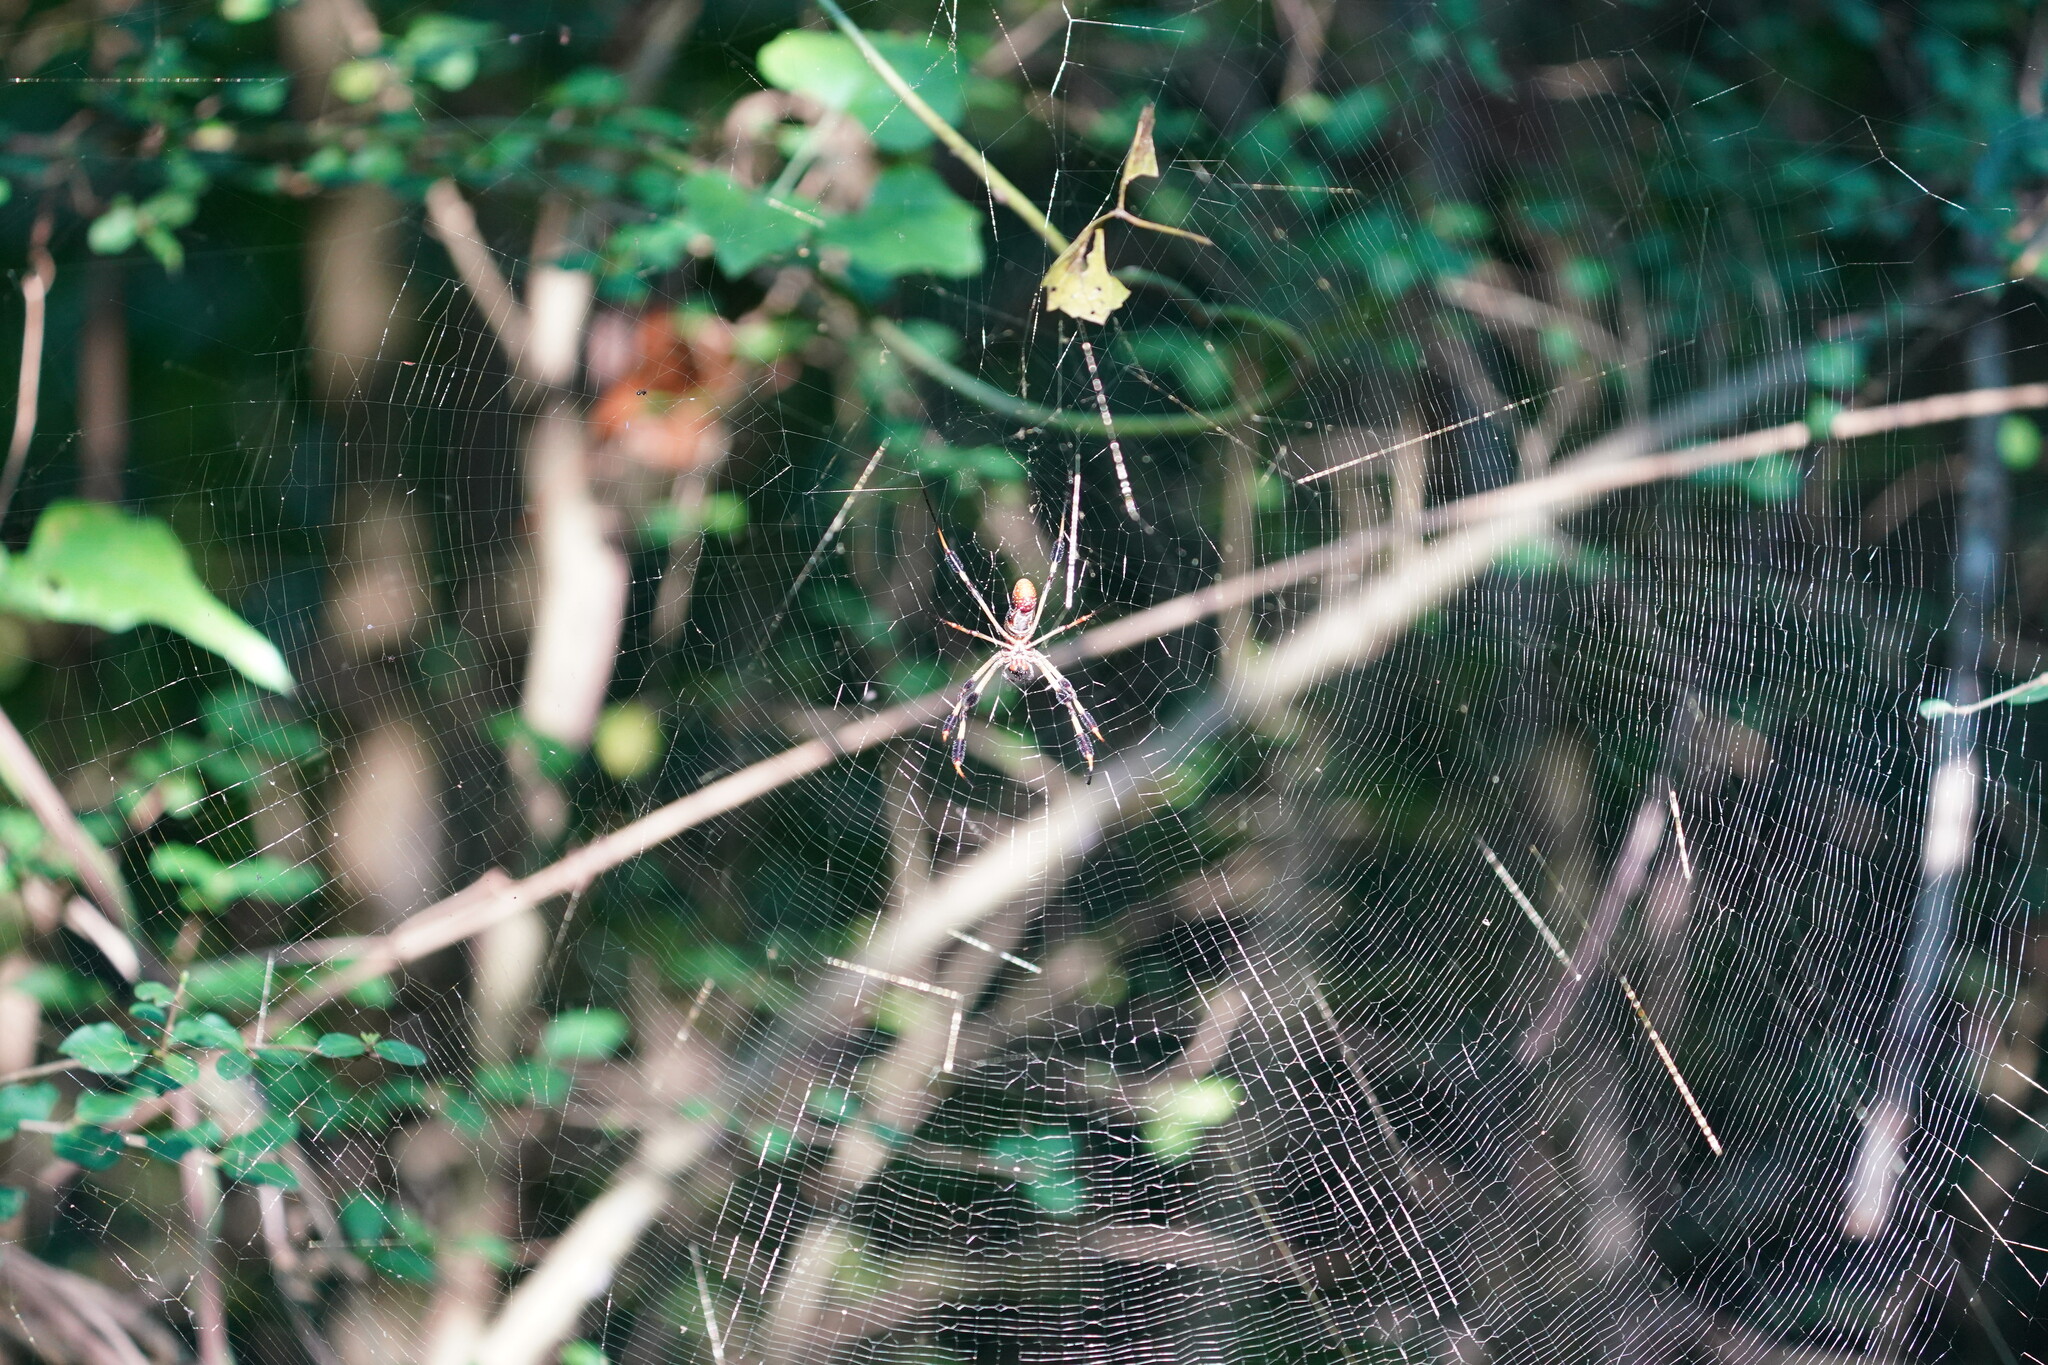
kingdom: Animalia
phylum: Arthropoda
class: Arachnida
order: Araneae
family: Araneidae
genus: Trichonephila
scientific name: Trichonephila clavipes
